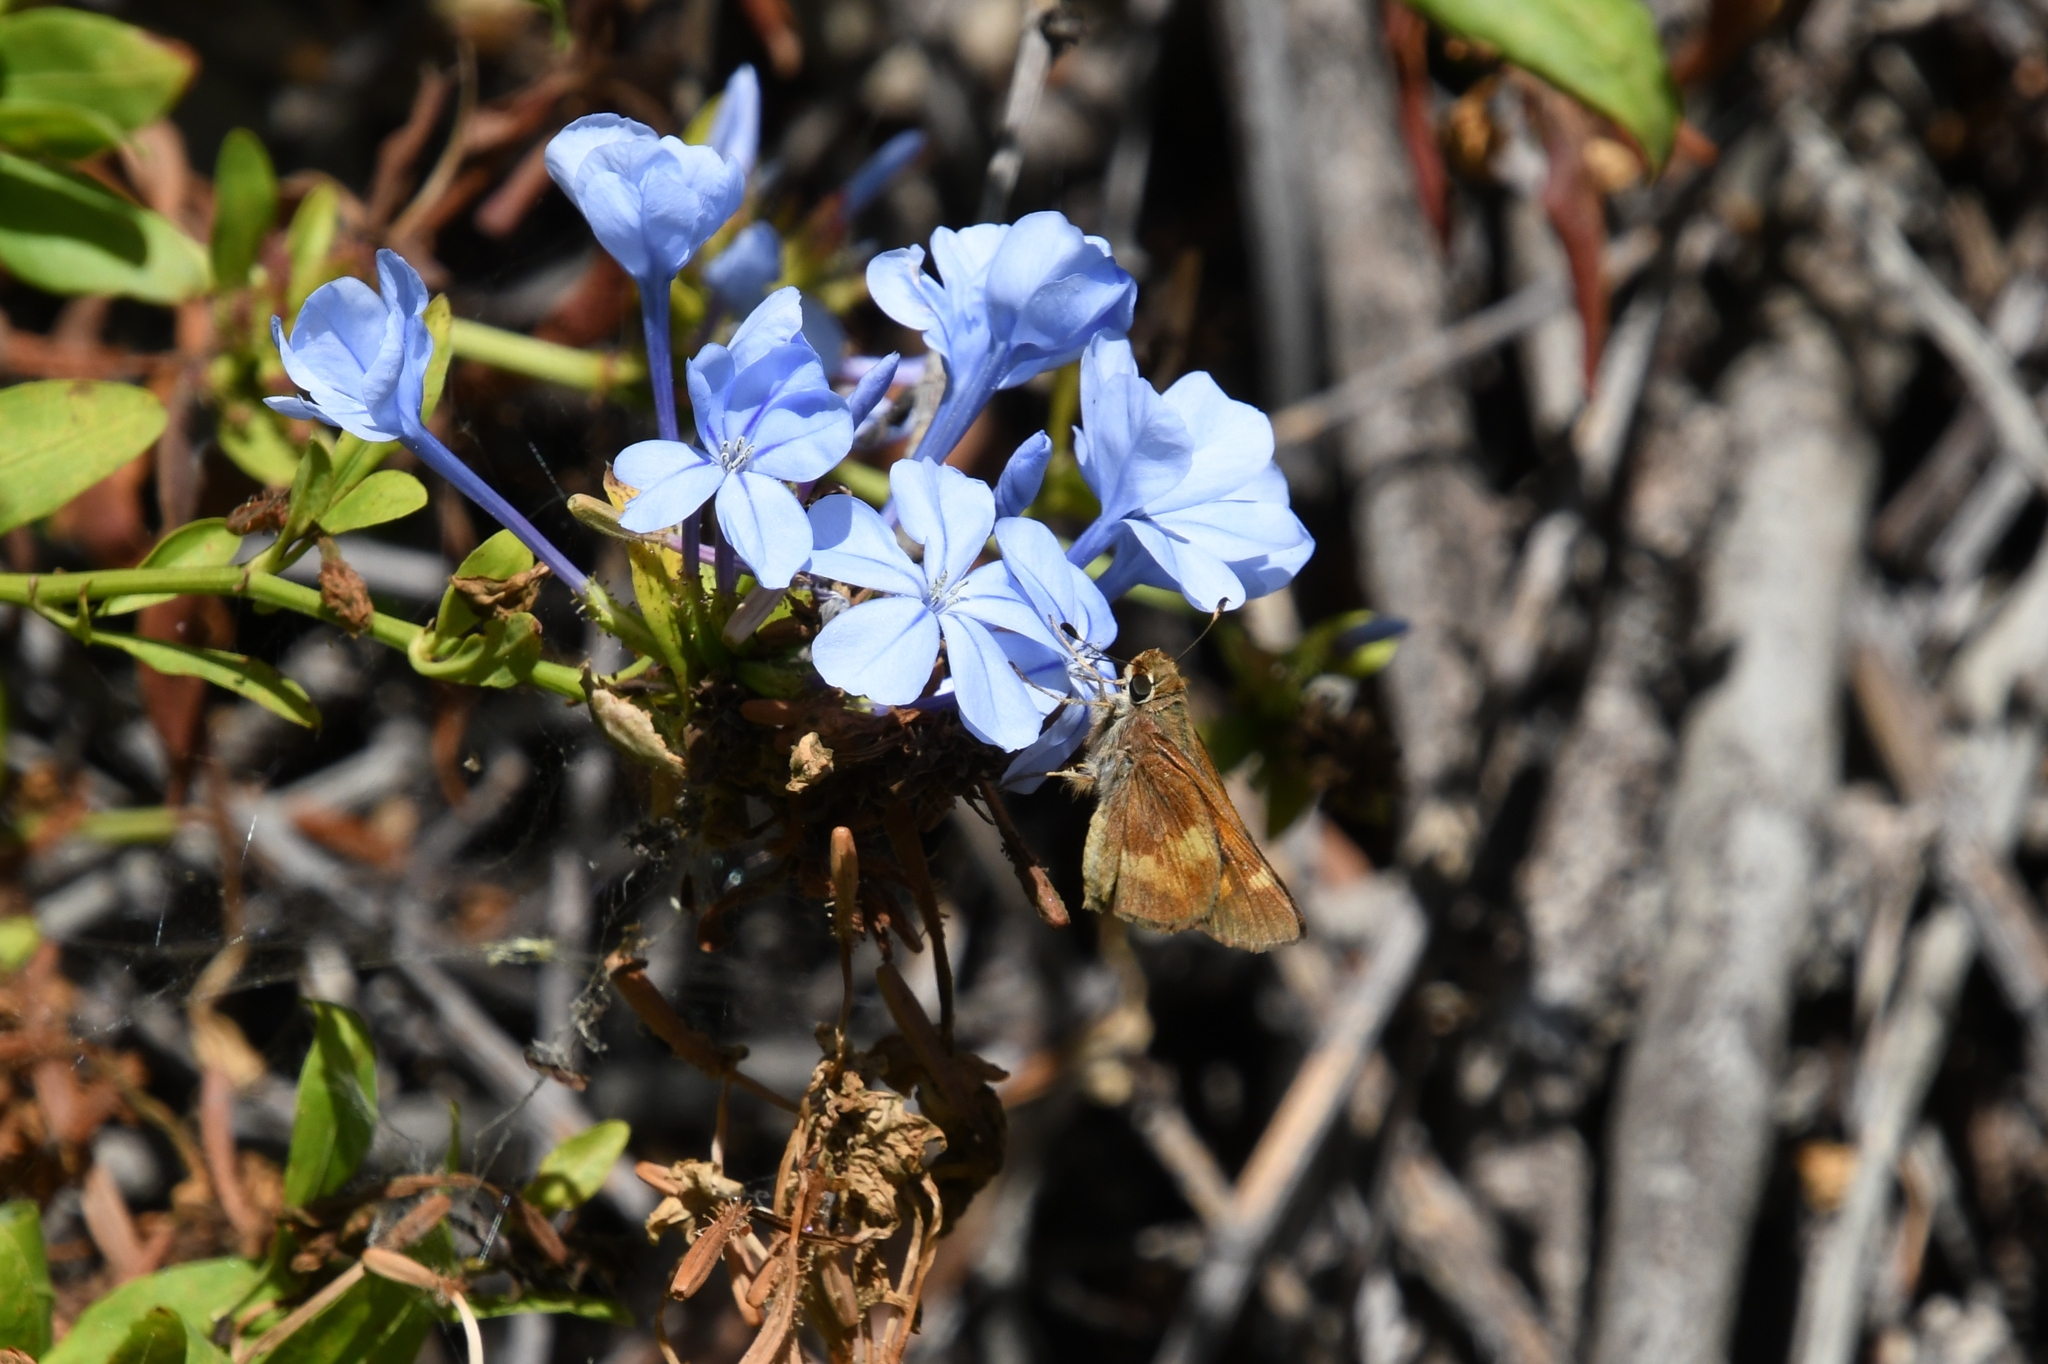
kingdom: Animalia
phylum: Arthropoda
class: Insecta
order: Lepidoptera
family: Hesperiidae
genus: Lon
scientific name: Lon melane
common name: Umber skipper
